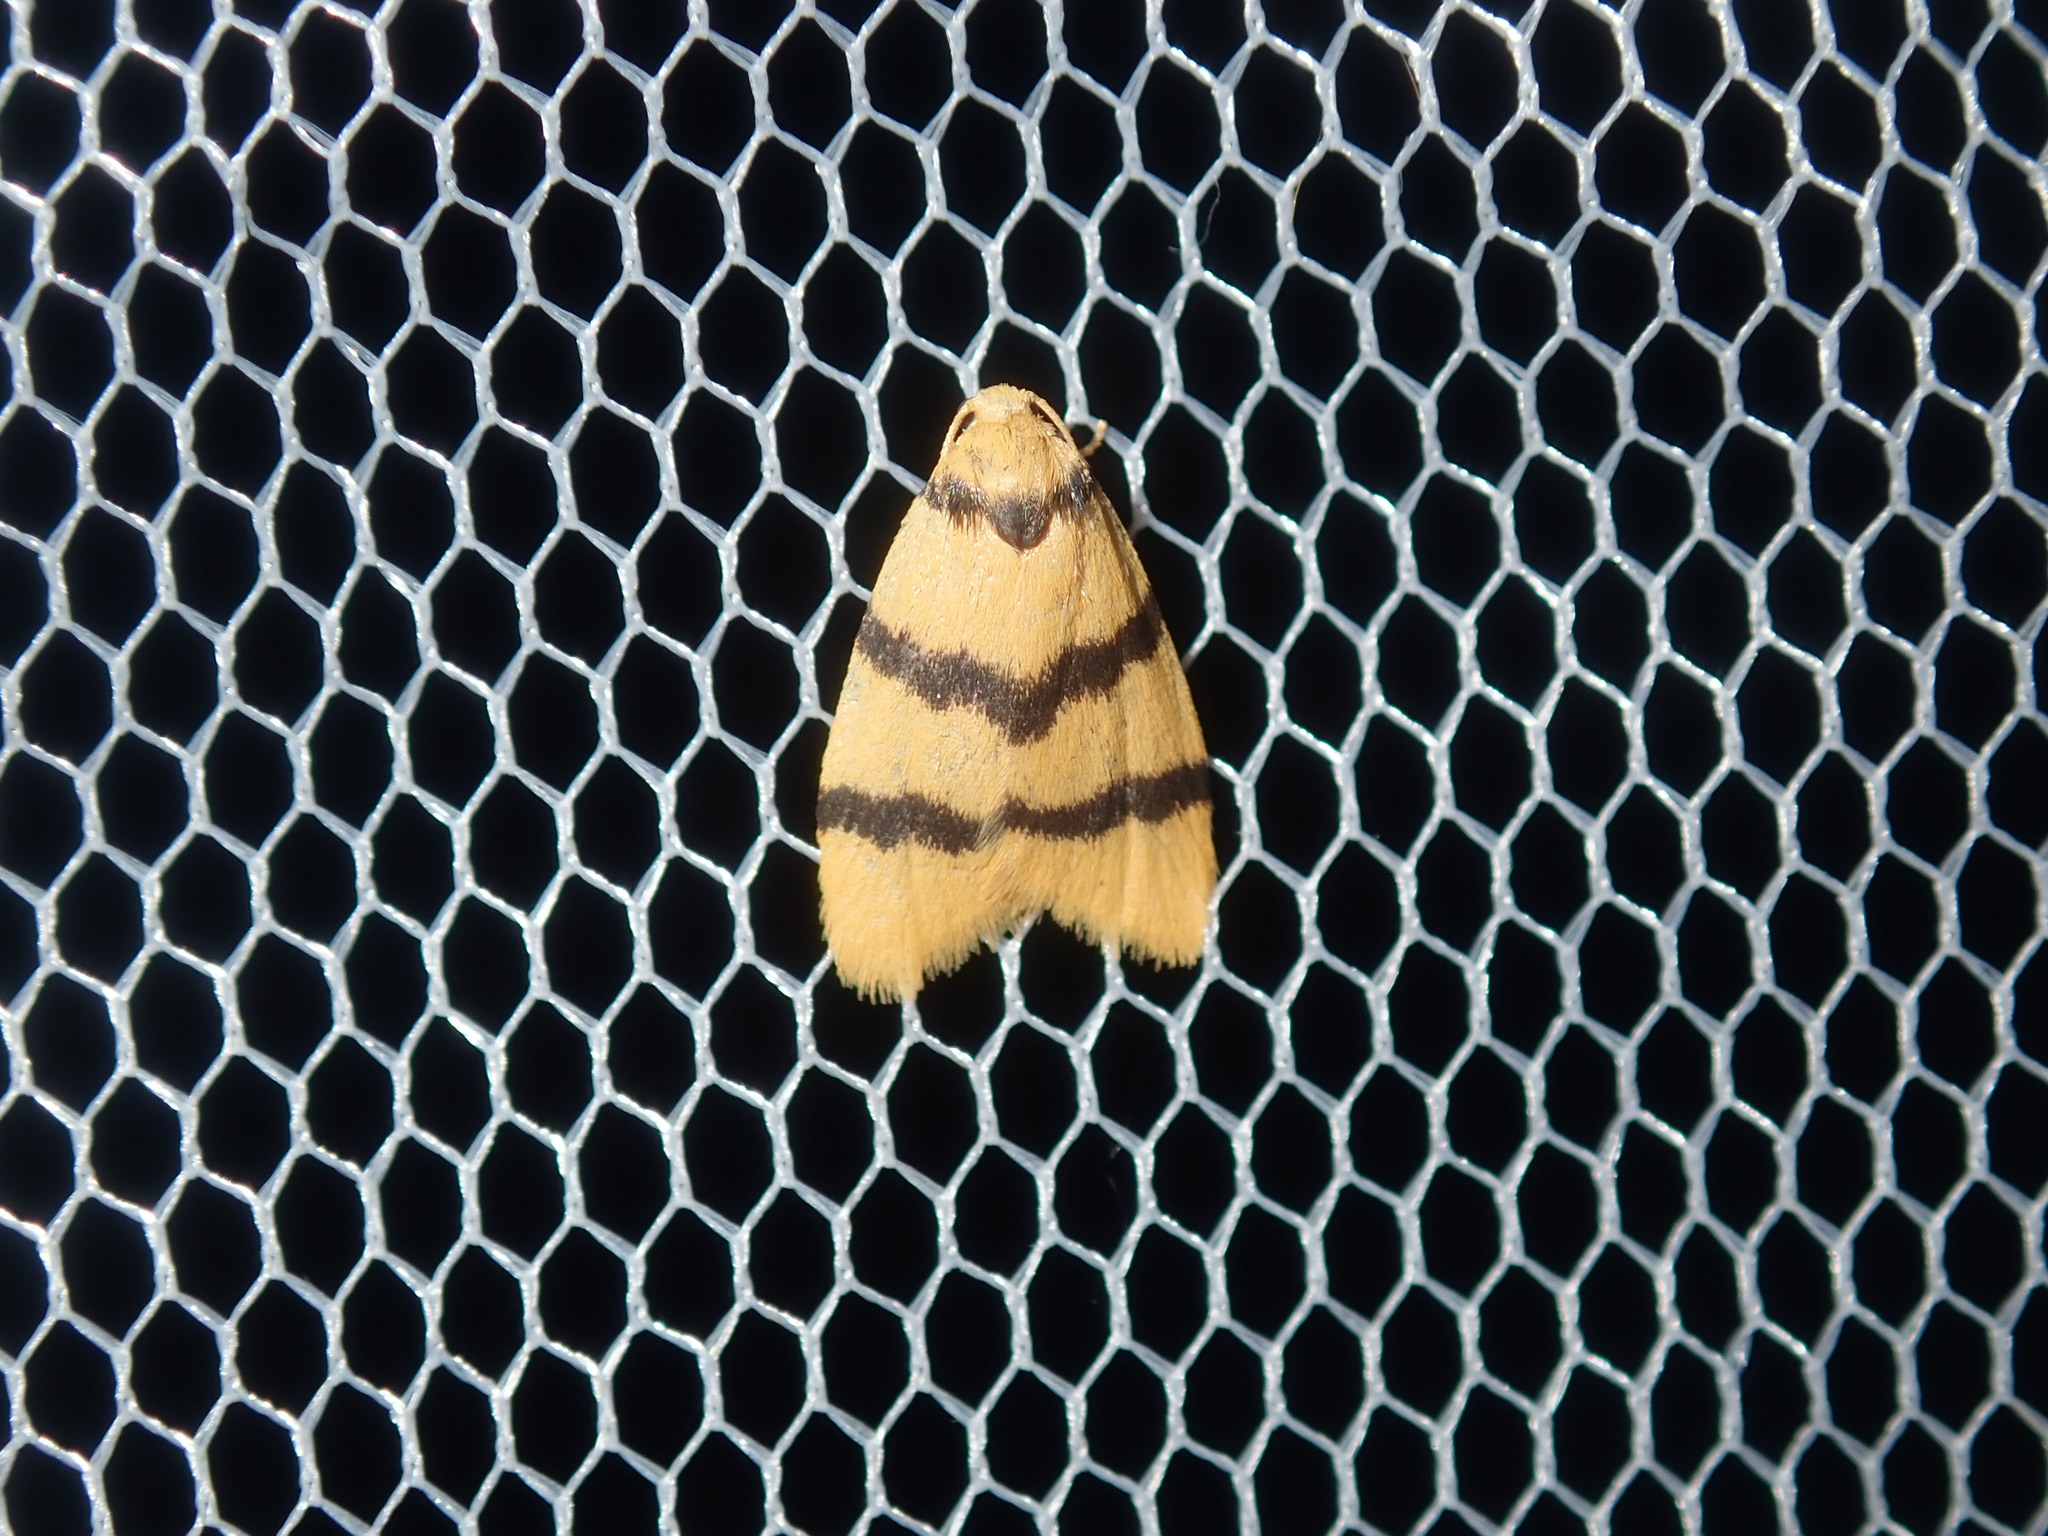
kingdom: Animalia
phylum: Arthropoda
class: Insecta
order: Lepidoptera
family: Erebidae
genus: Heliosia
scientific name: Heliosia jucunda
